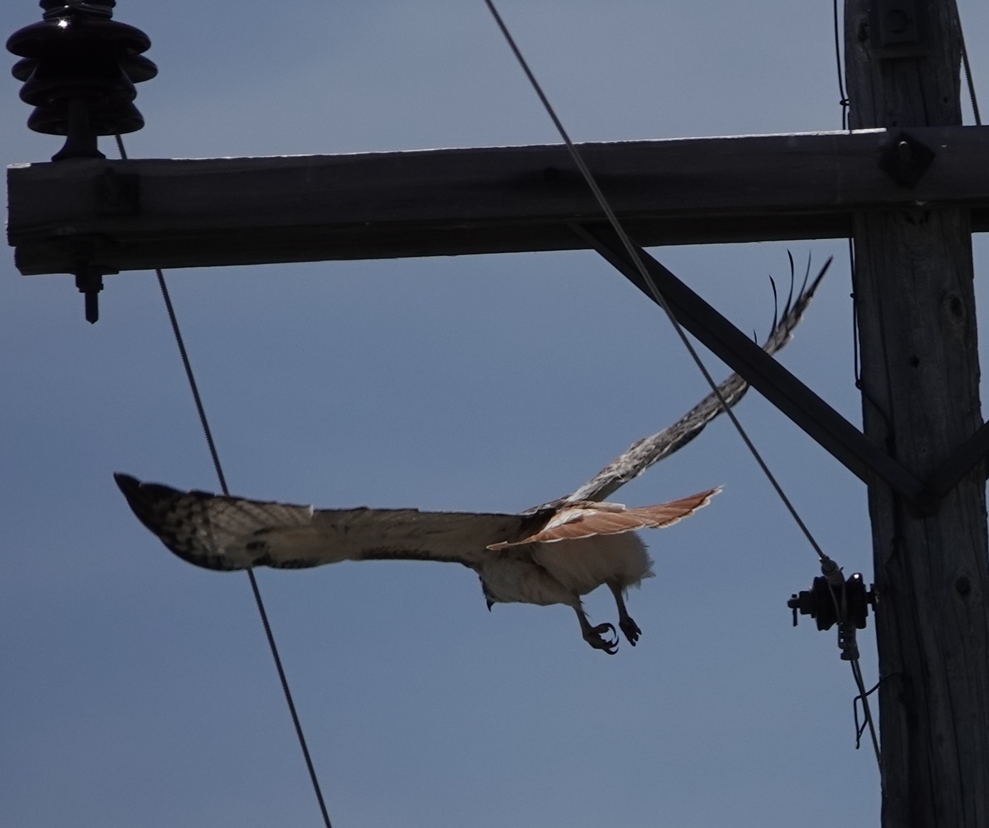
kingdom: Animalia
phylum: Chordata
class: Aves
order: Accipitriformes
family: Accipitridae
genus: Buteo
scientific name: Buteo jamaicensis
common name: Red-tailed hawk
